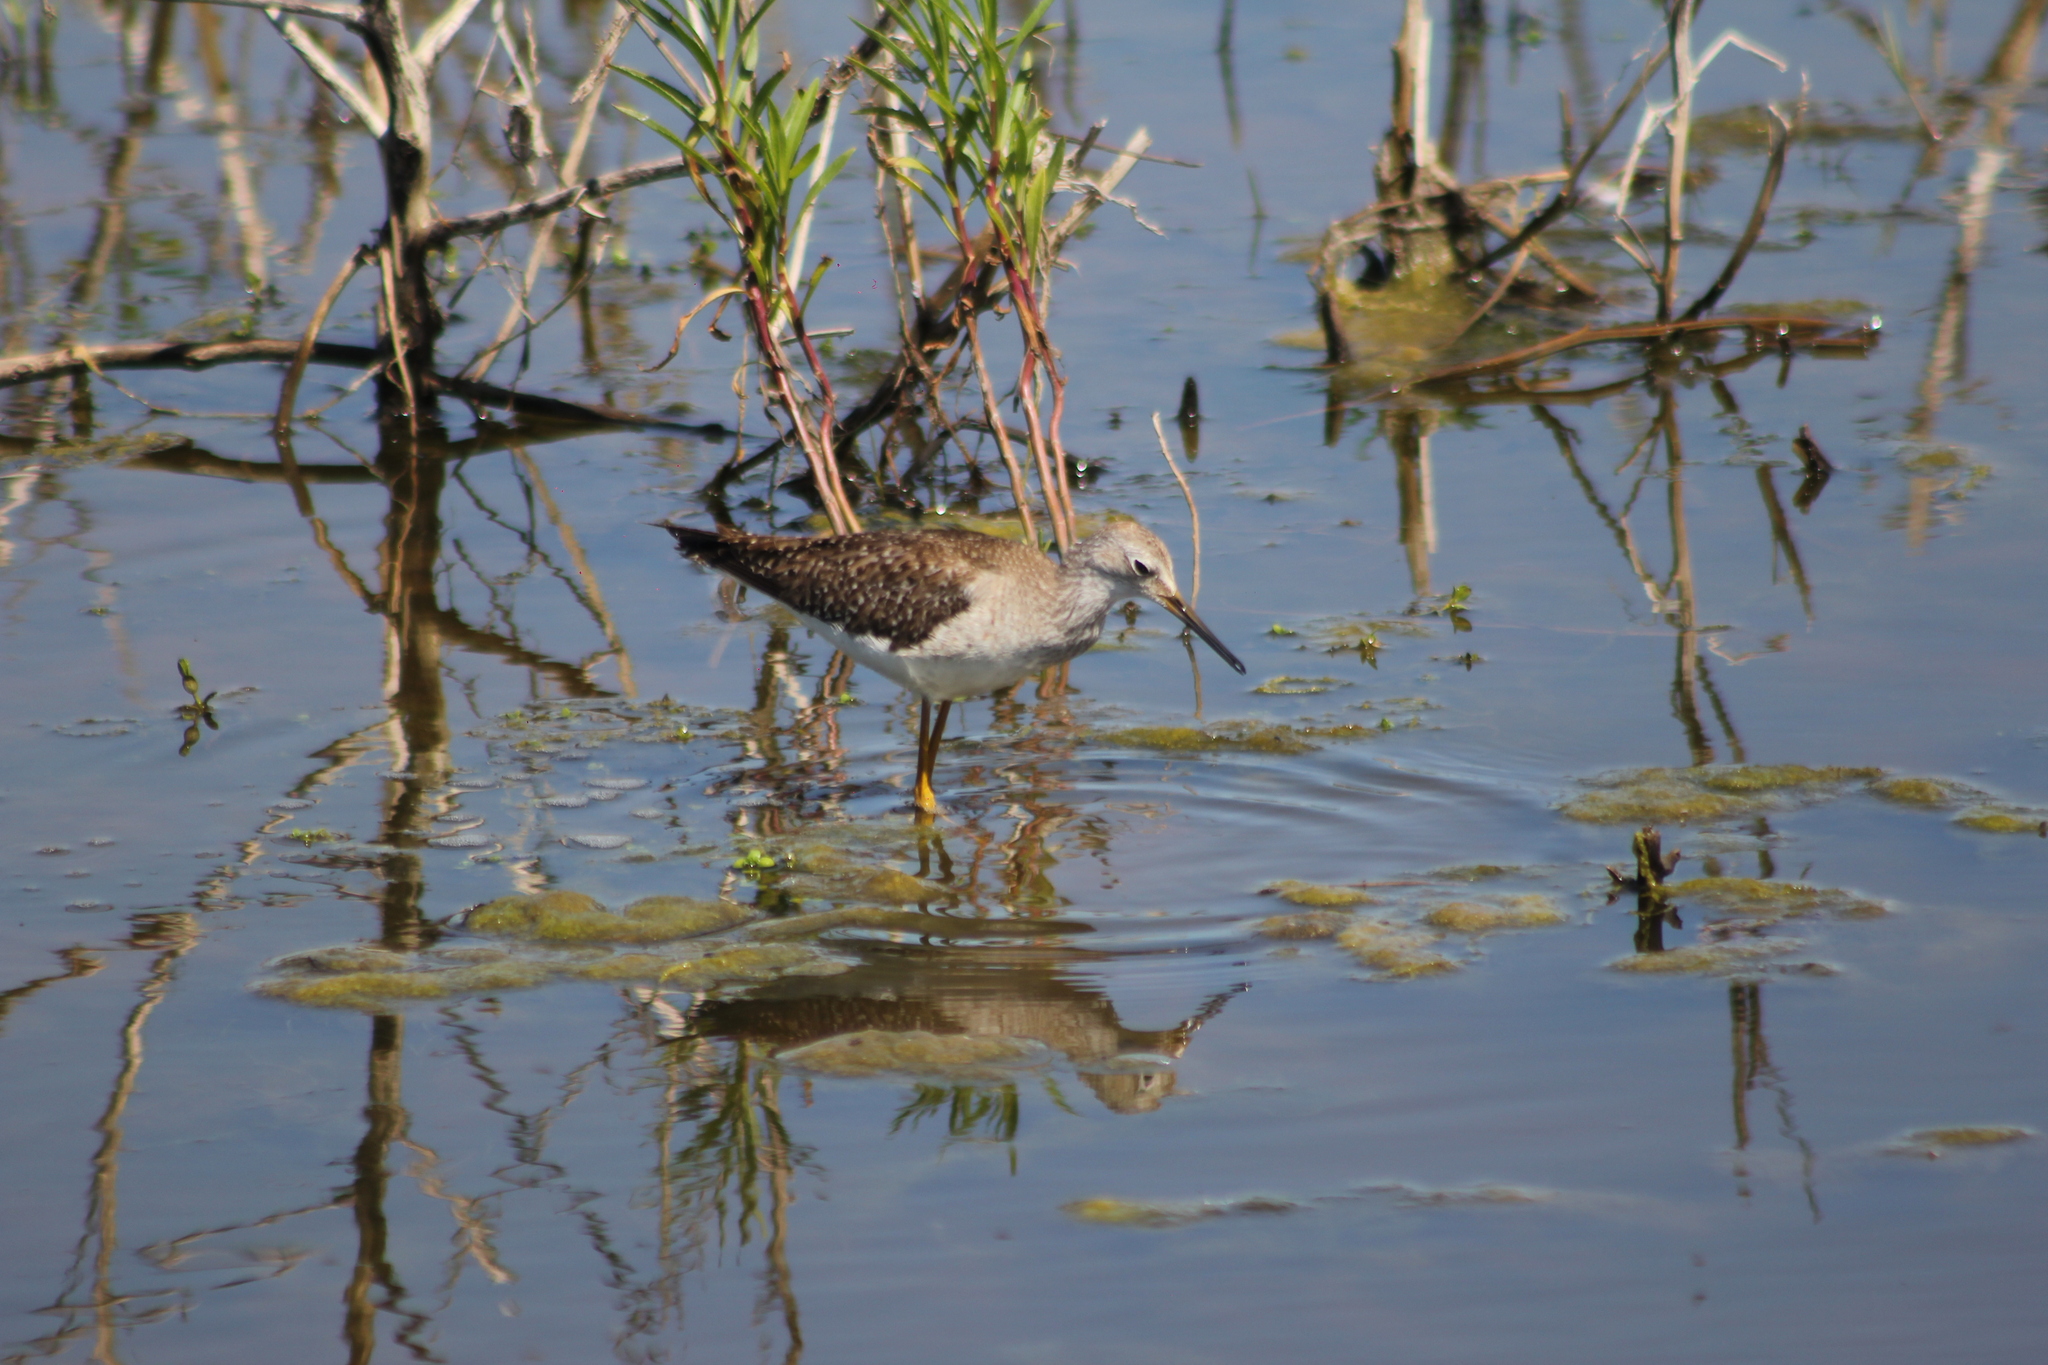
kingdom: Animalia
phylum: Chordata
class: Aves
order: Charadriiformes
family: Scolopacidae
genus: Tringa
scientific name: Tringa flavipes
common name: Lesser yellowlegs
